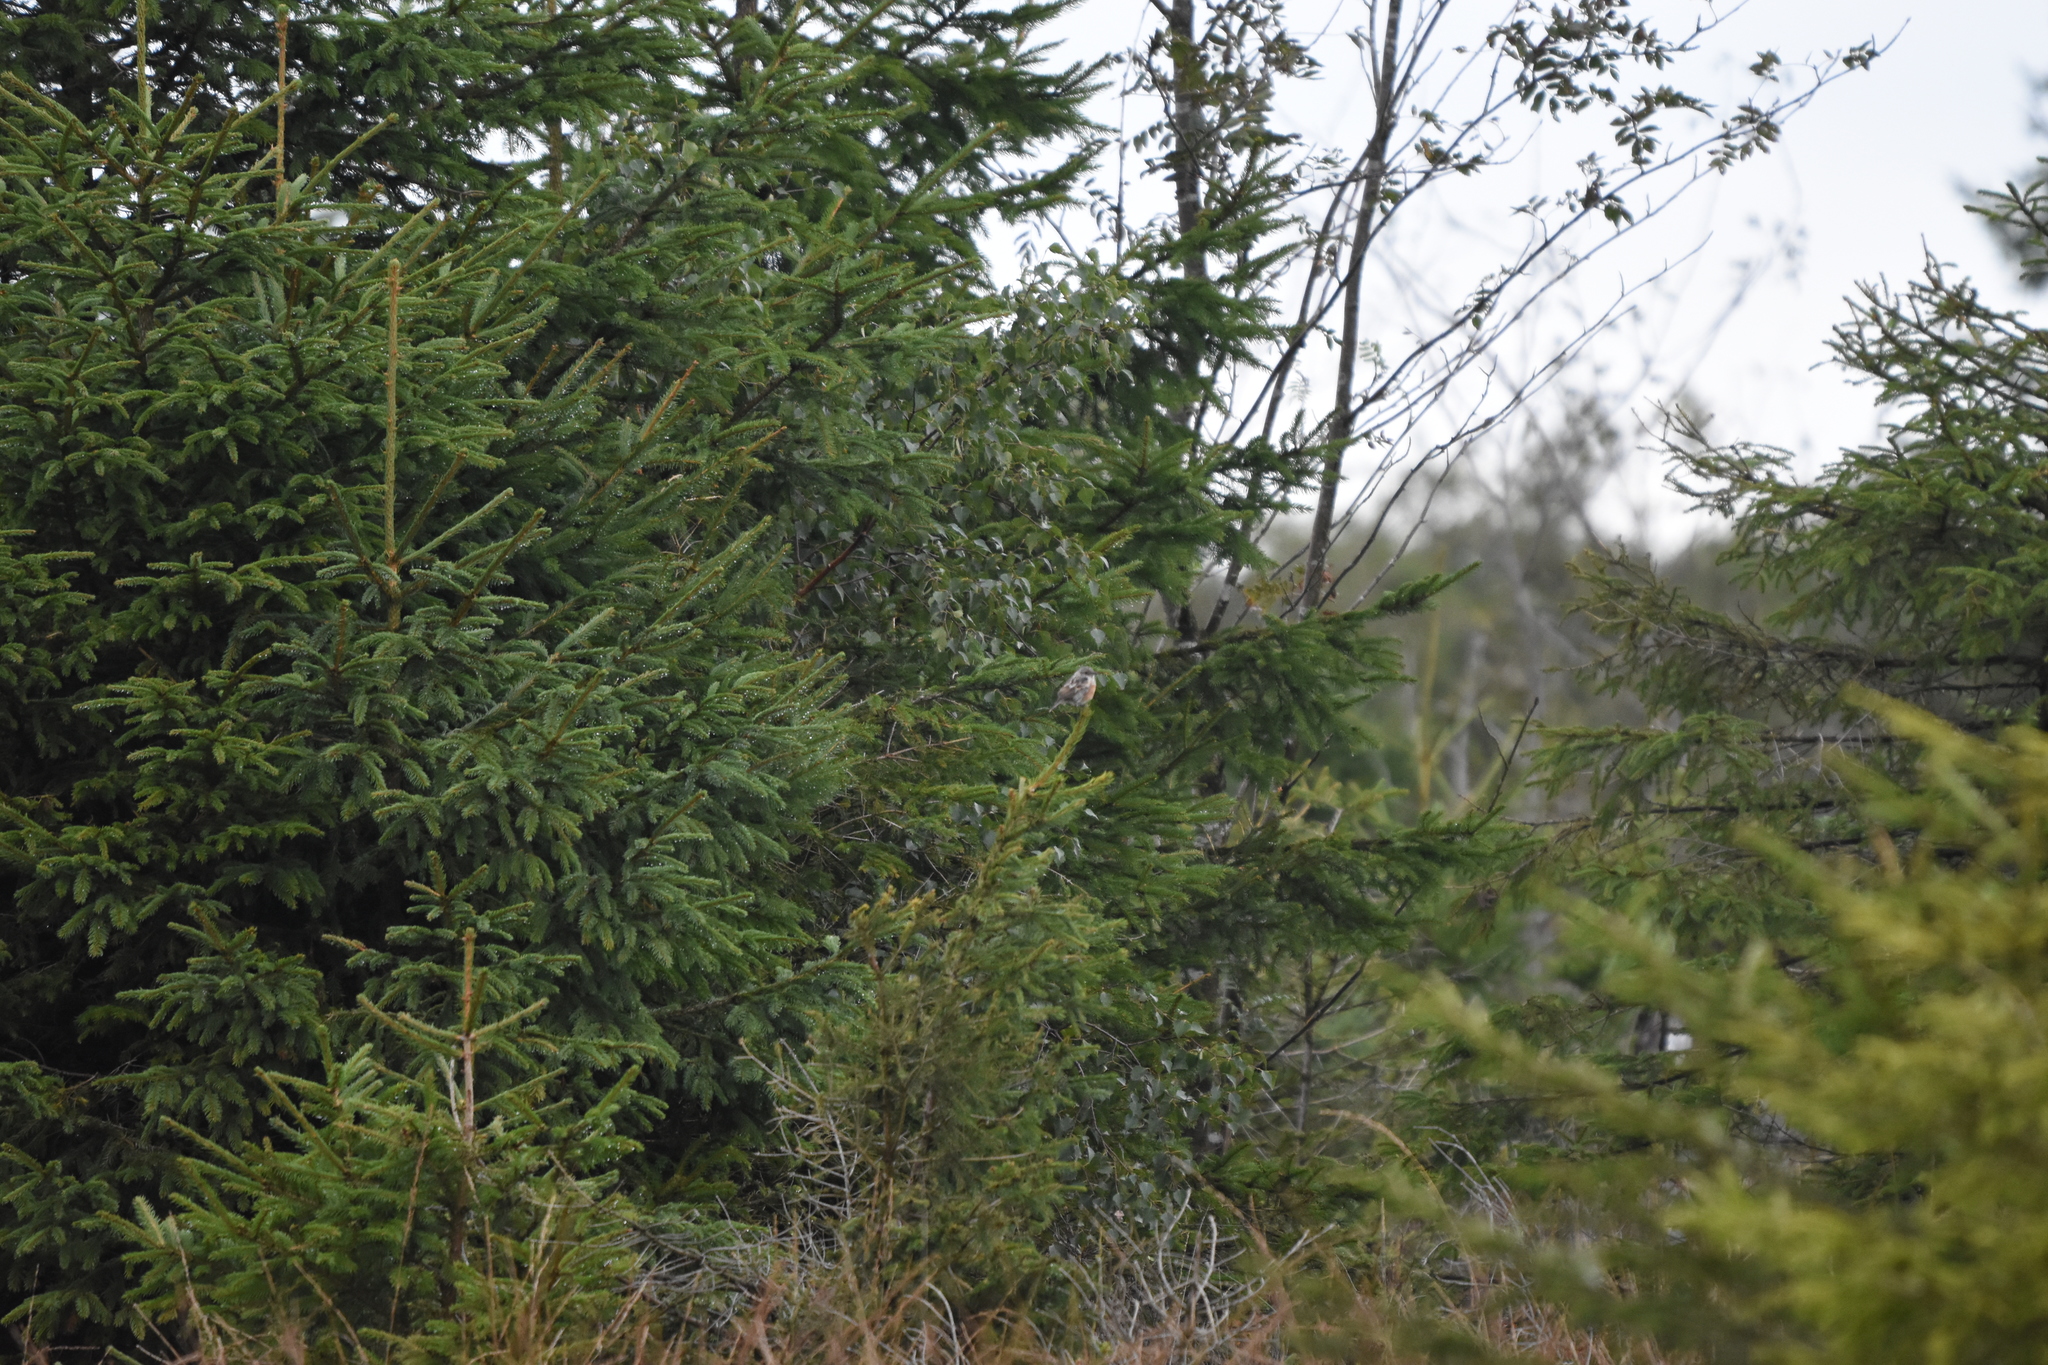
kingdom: Animalia
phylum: Chordata
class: Aves
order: Passeriformes
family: Muscicapidae
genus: Saxicola
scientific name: Saxicola rubicola
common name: European stonechat
